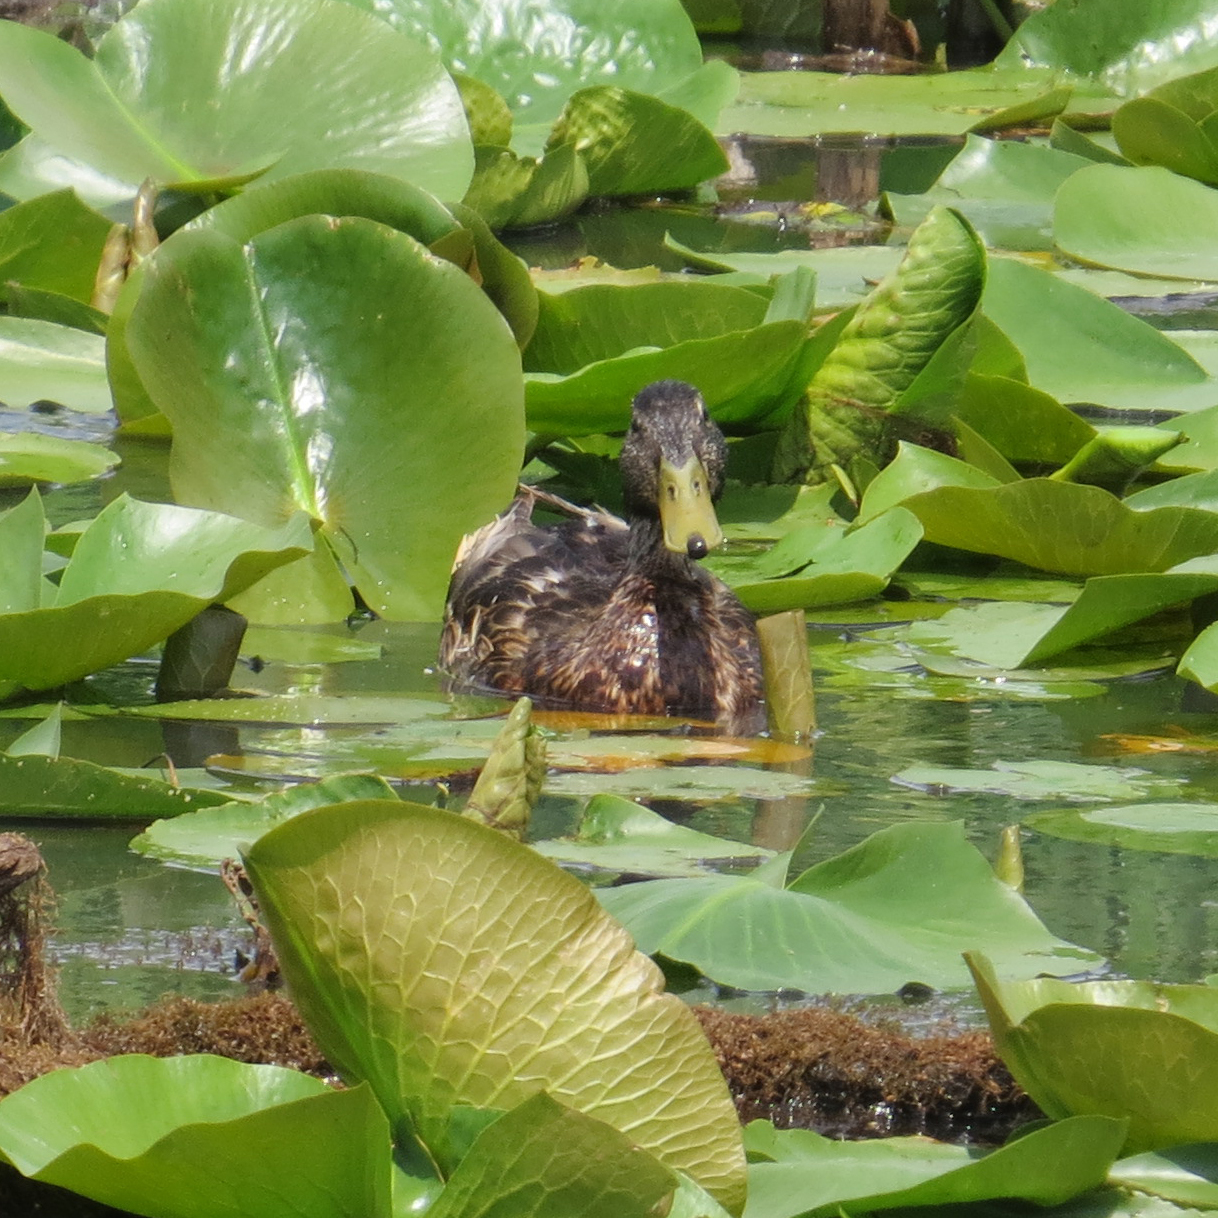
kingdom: Animalia
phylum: Chordata
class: Aves
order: Anseriformes
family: Anatidae
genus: Anas
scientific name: Anas platyrhynchos
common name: Mallard
